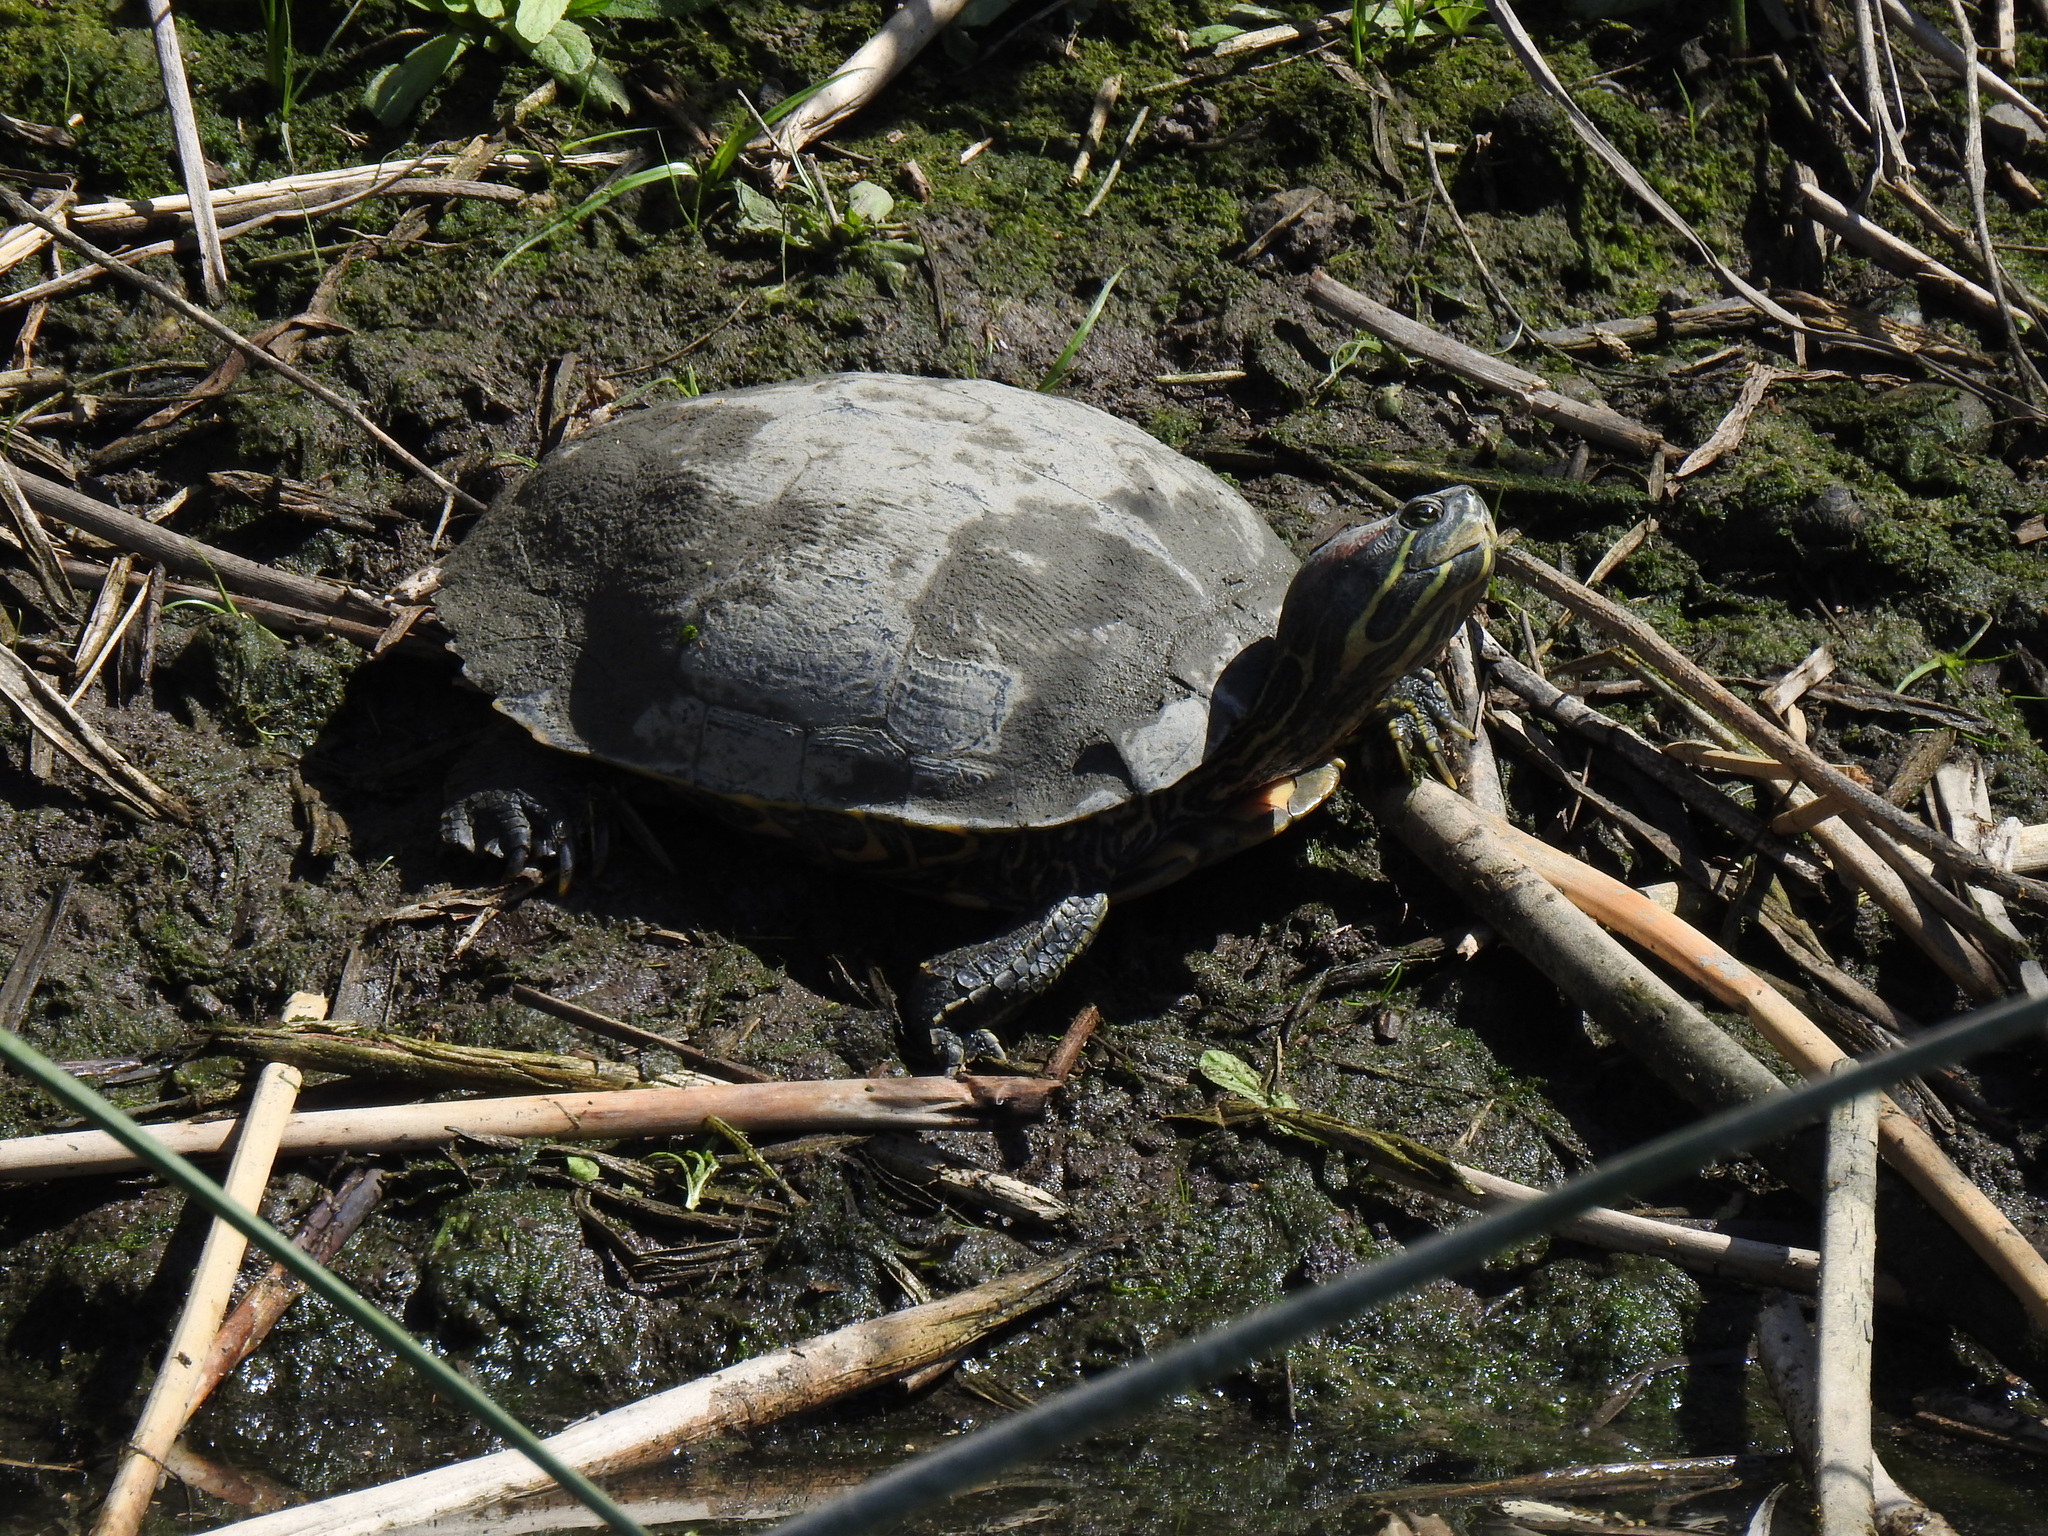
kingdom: Animalia
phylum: Chordata
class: Testudines
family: Emydidae
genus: Trachemys
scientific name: Trachemys scripta
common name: Slider
